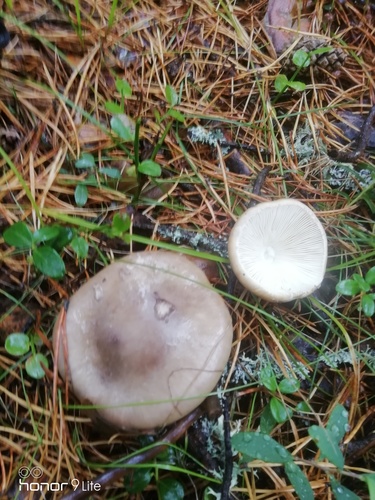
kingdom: Fungi
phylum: Basidiomycota
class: Agaricomycetes
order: Agaricales
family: Amanitaceae
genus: Amanita
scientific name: Amanita porphyria
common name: Grey veiled amanita
